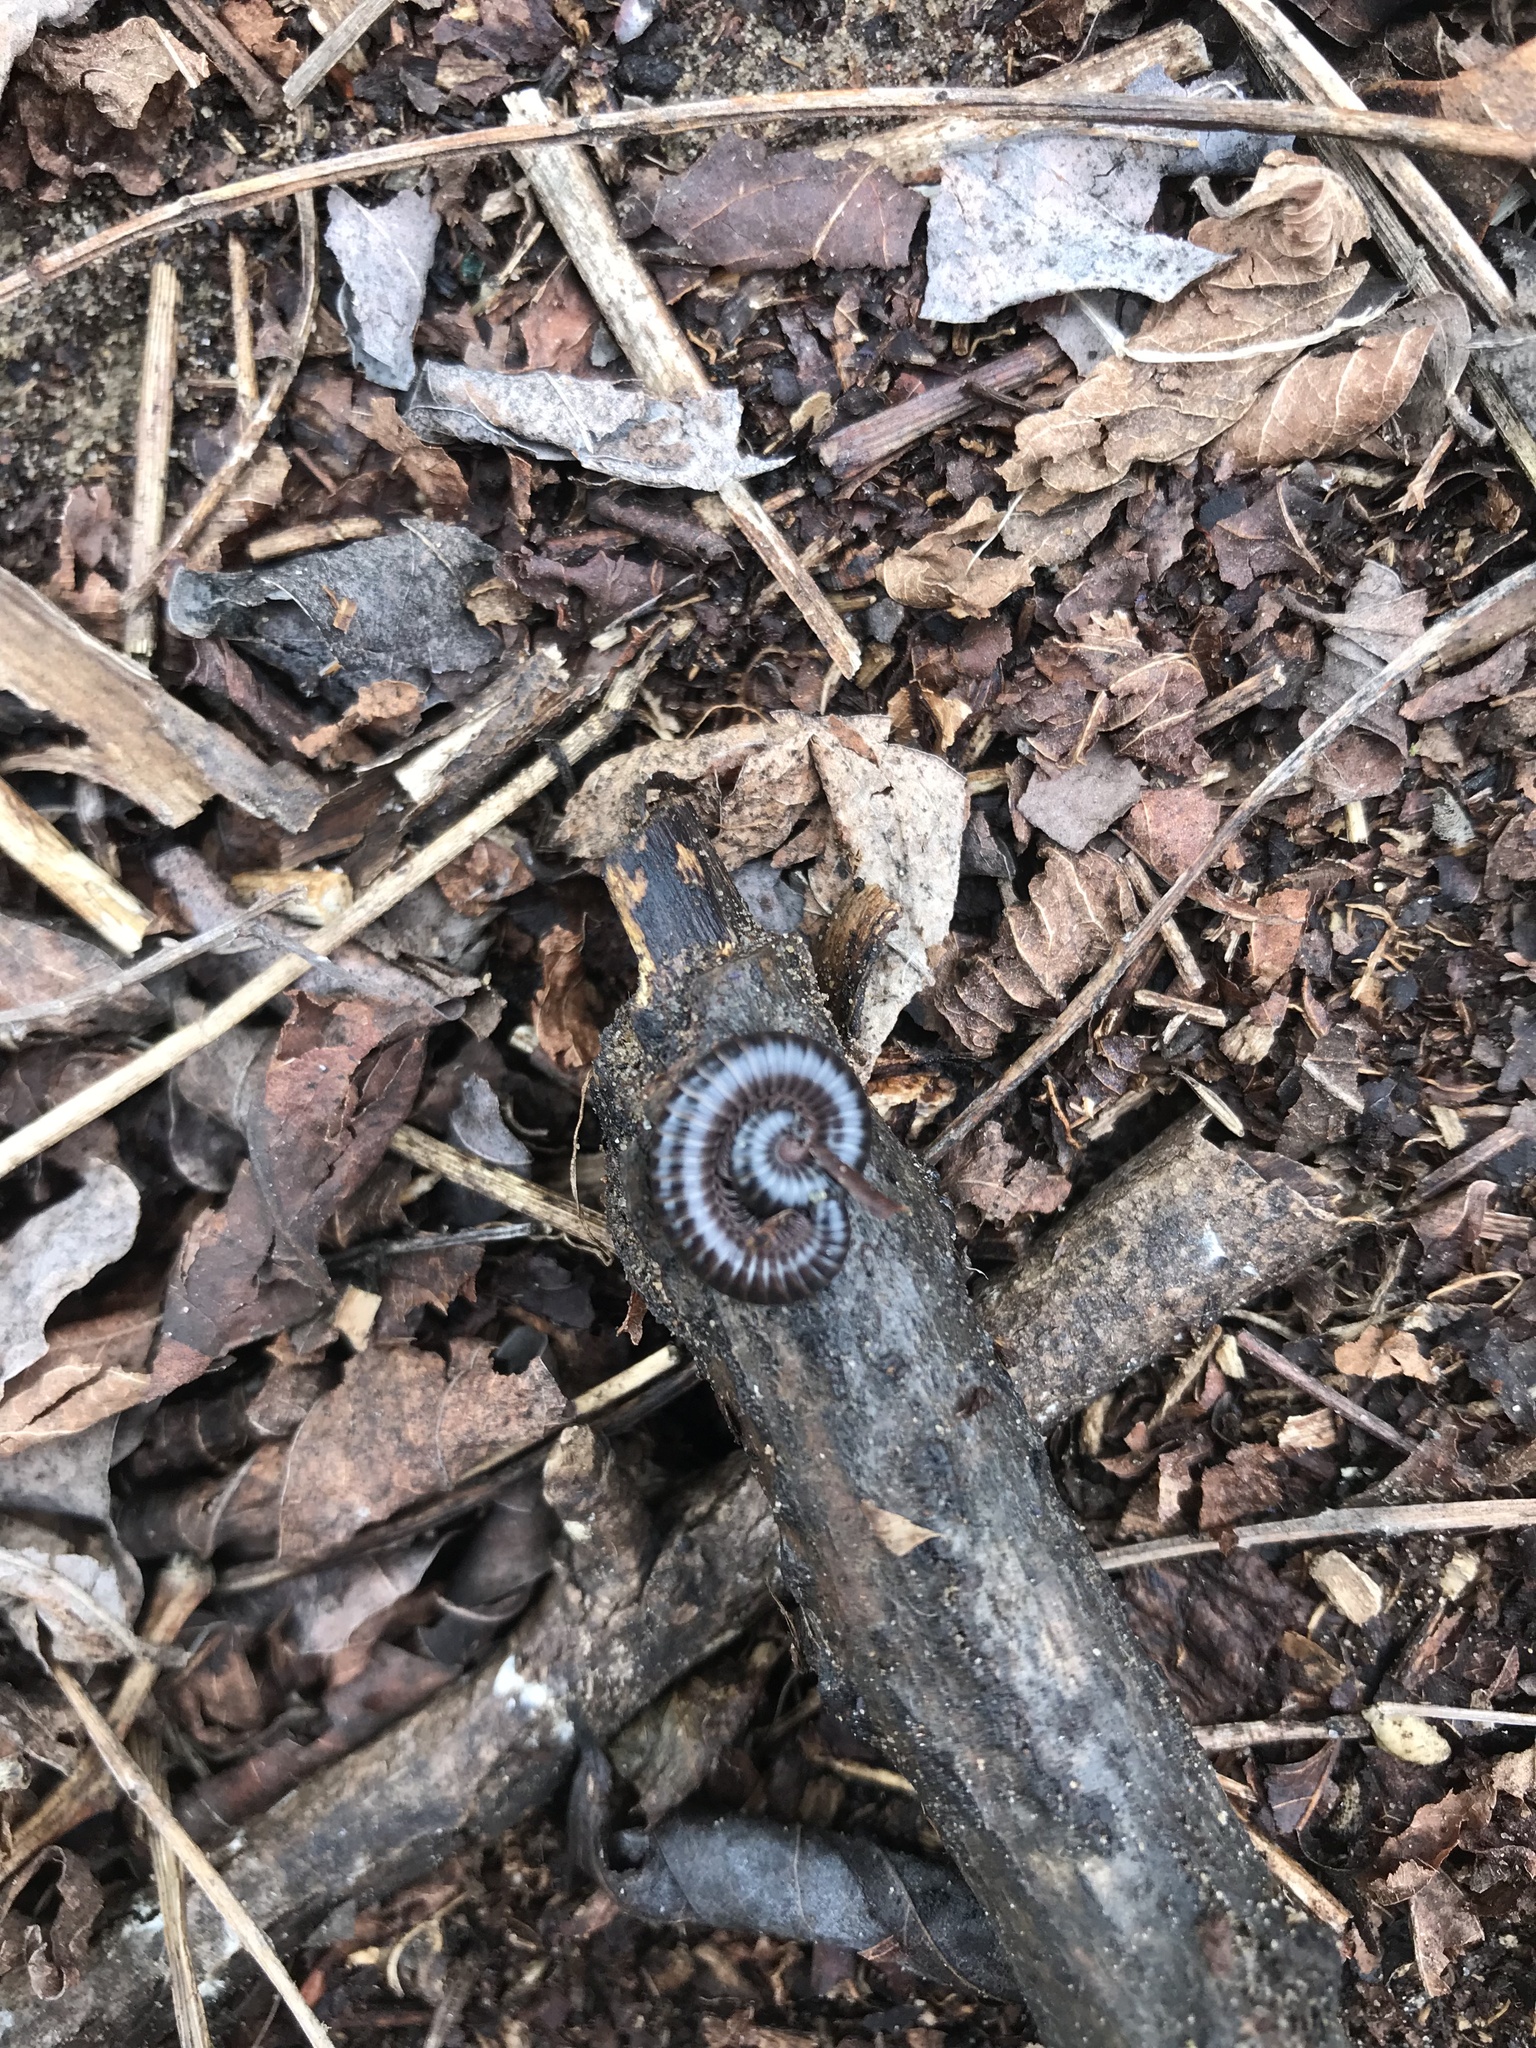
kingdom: Animalia
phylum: Arthropoda
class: Diplopoda
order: Julida
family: Julidae
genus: Ommatoiulus
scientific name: Ommatoiulus sabulosus
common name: Striped millipede
